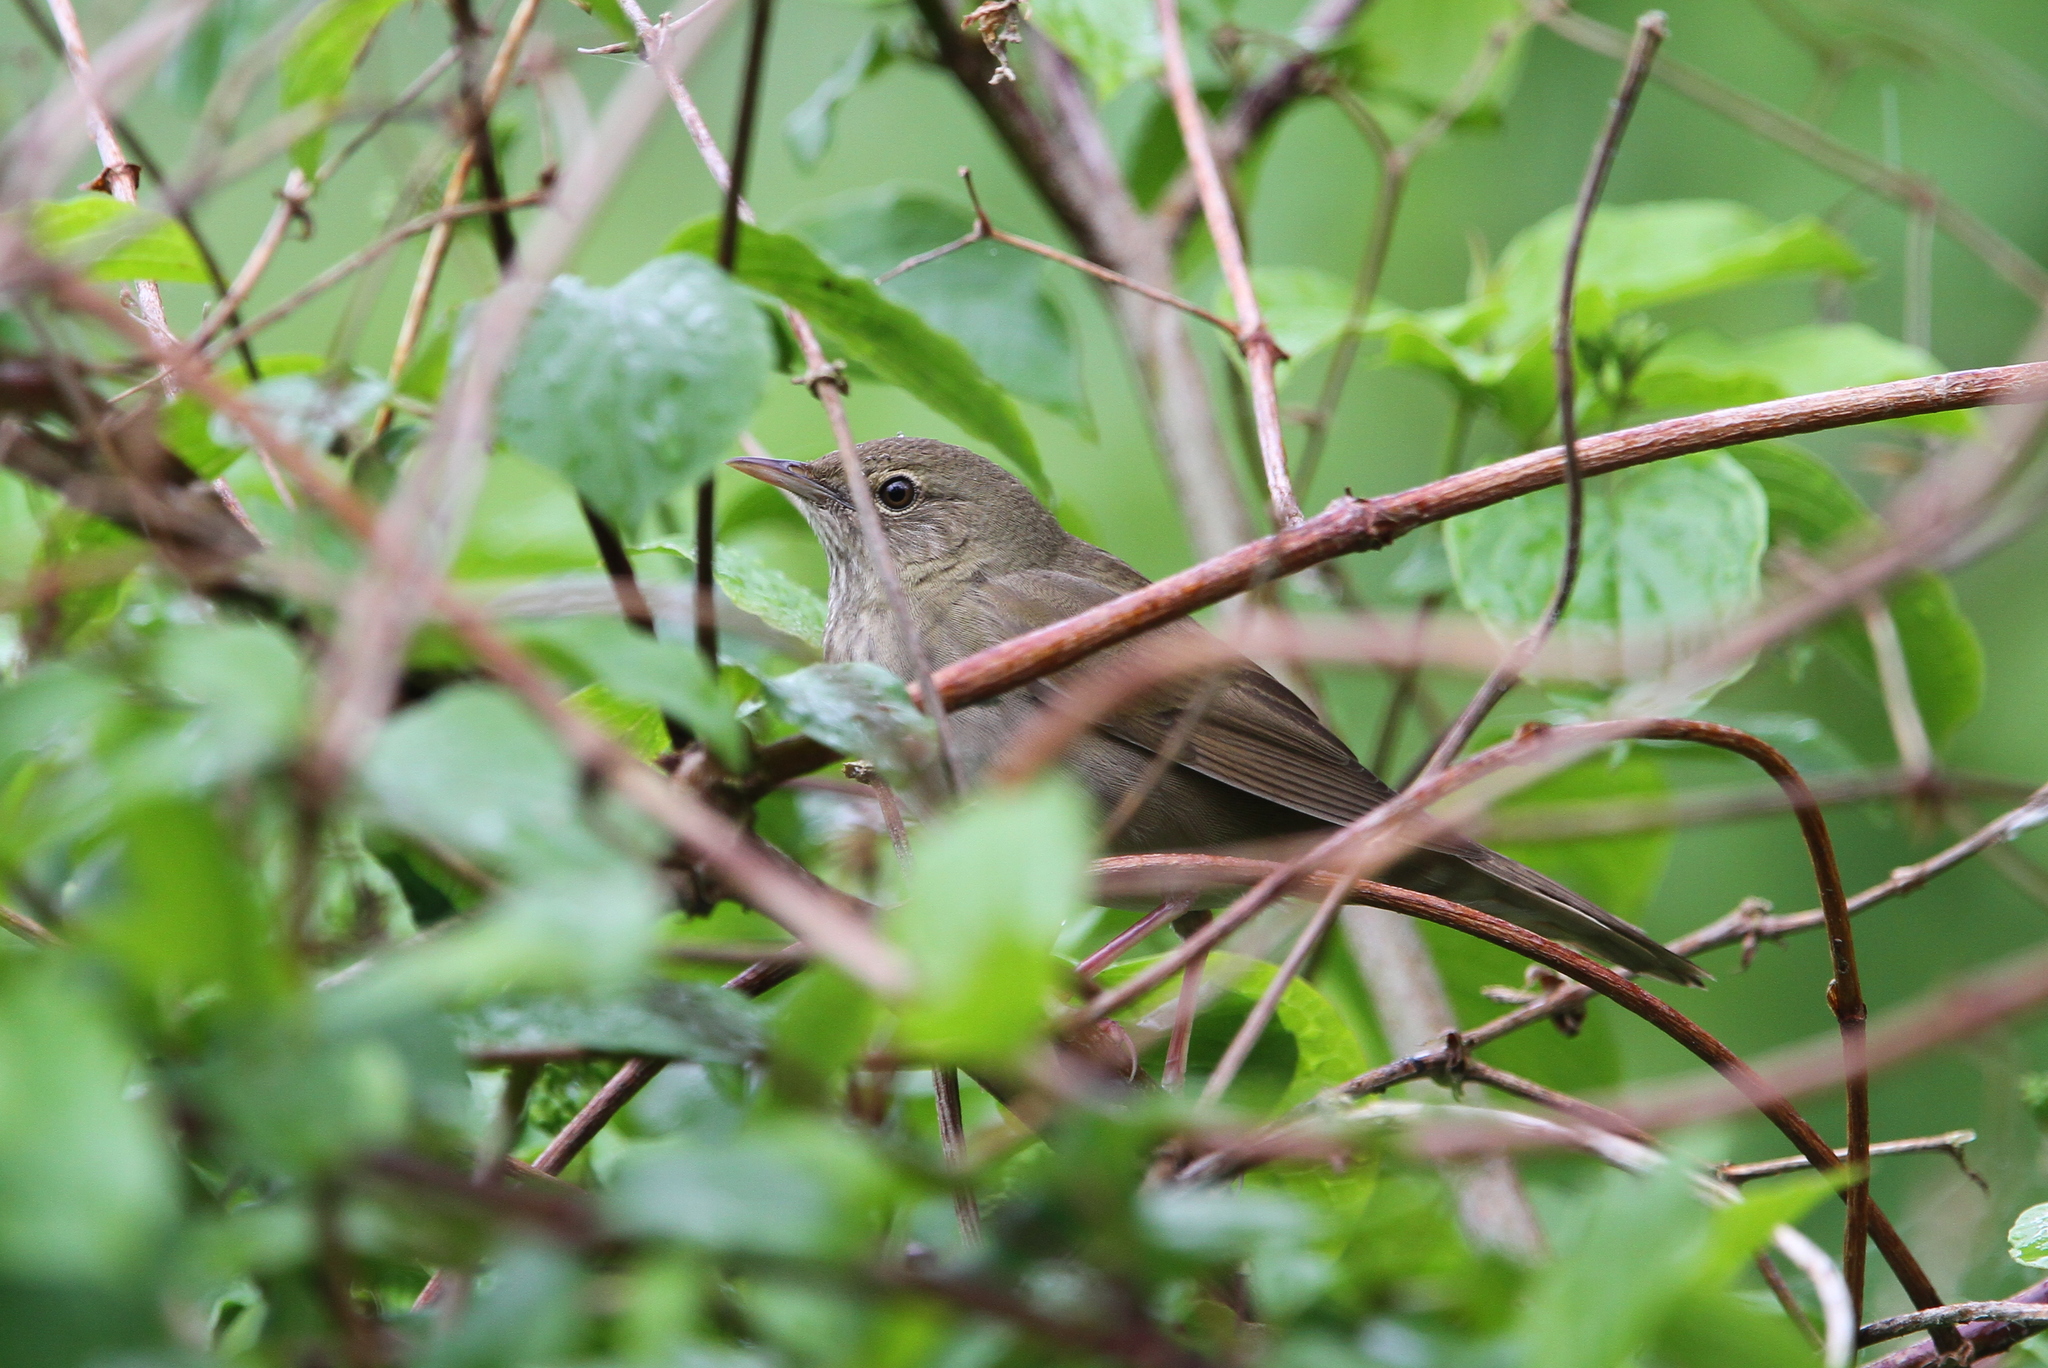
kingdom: Animalia
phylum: Chordata
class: Aves
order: Passeriformes
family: Locustellidae
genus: Locustella
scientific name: Locustella fluviatilis
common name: River warbler
